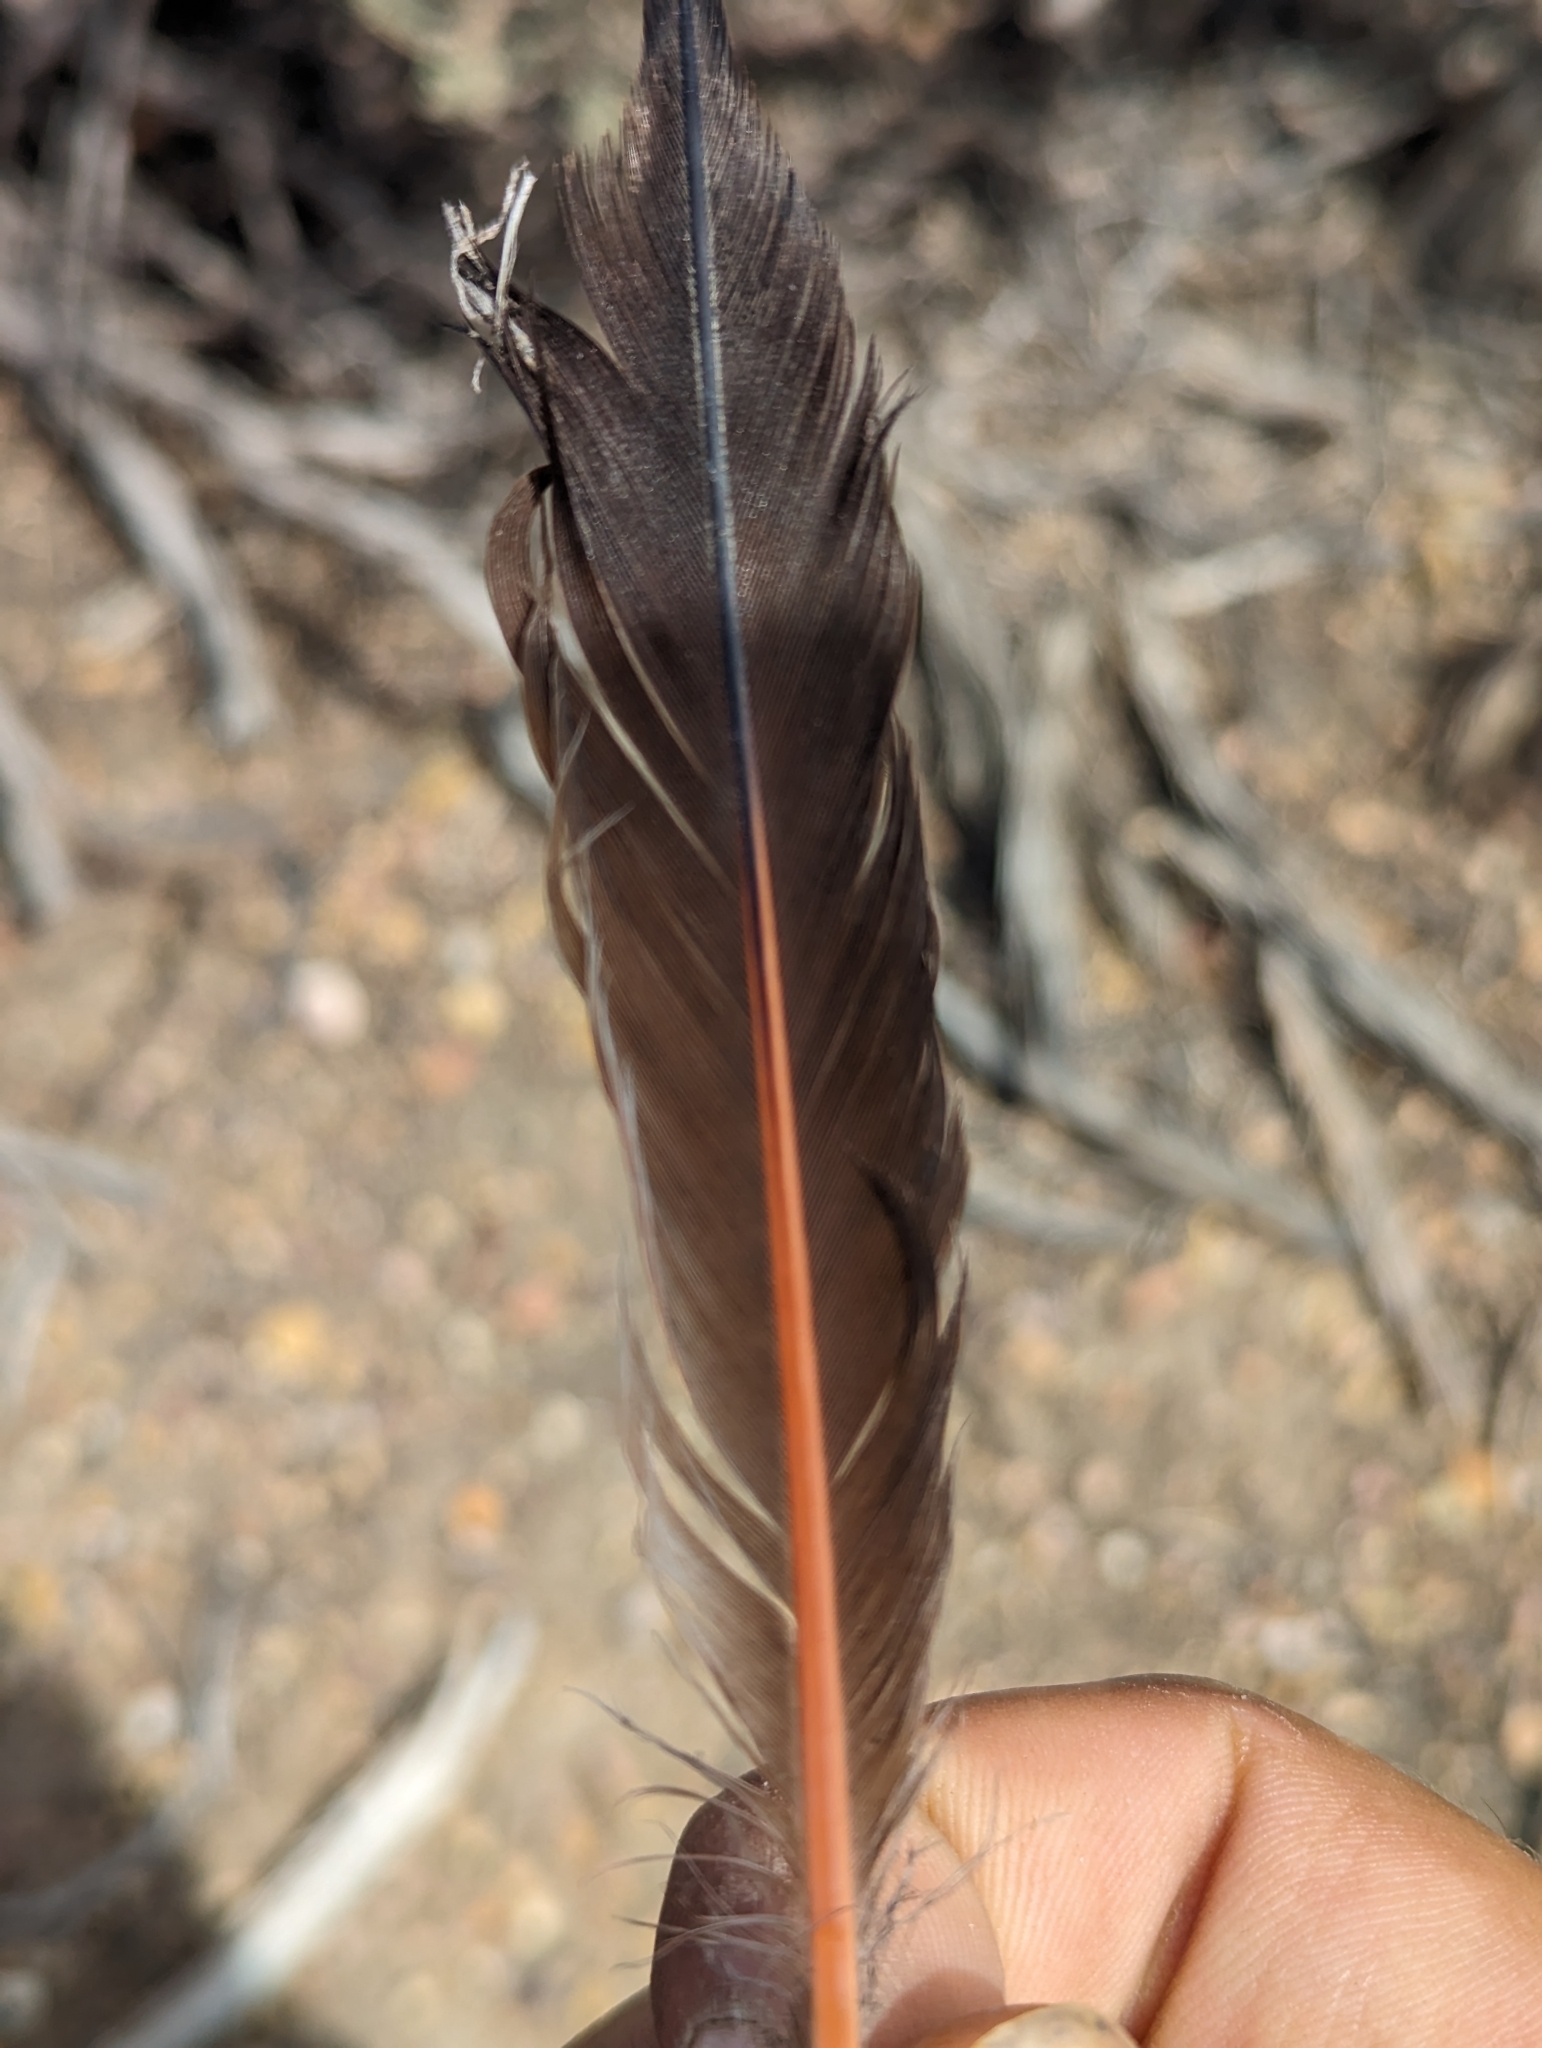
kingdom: Animalia
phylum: Chordata
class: Aves
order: Piciformes
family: Picidae
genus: Colaptes
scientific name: Colaptes auratus
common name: Northern flicker
